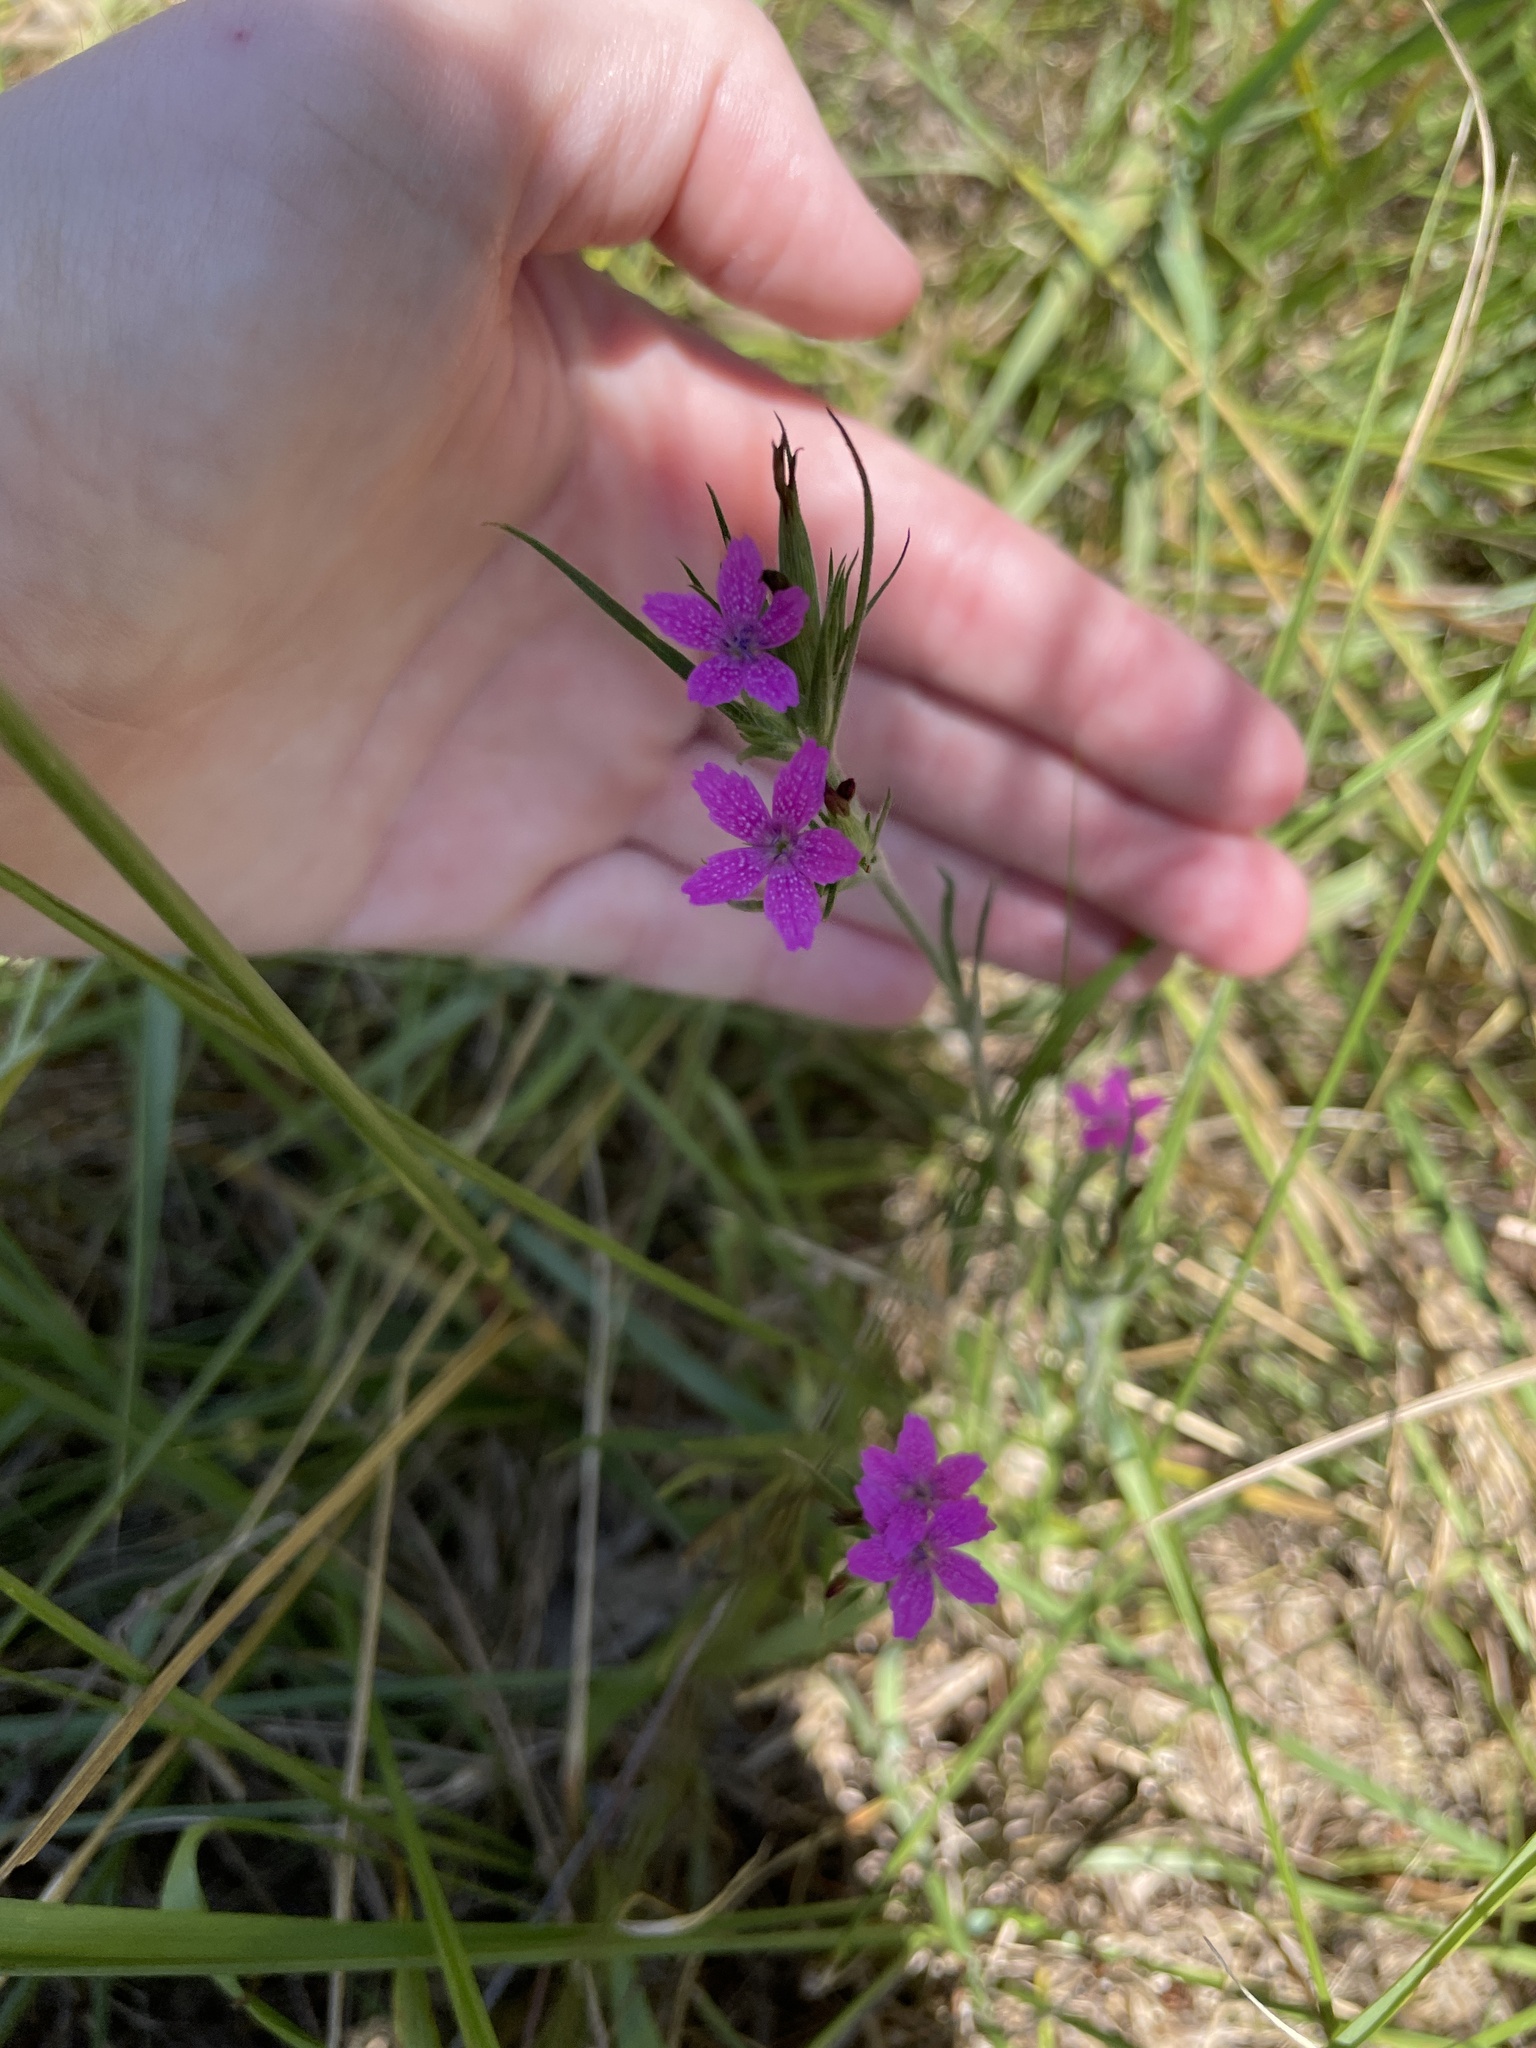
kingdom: Plantae
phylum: Tracheophyta
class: Magnoliopsida
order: Caryophyllales
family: Caryophyllaceae
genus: Dianthus
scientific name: Dianthus armeria
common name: Deptford pink
